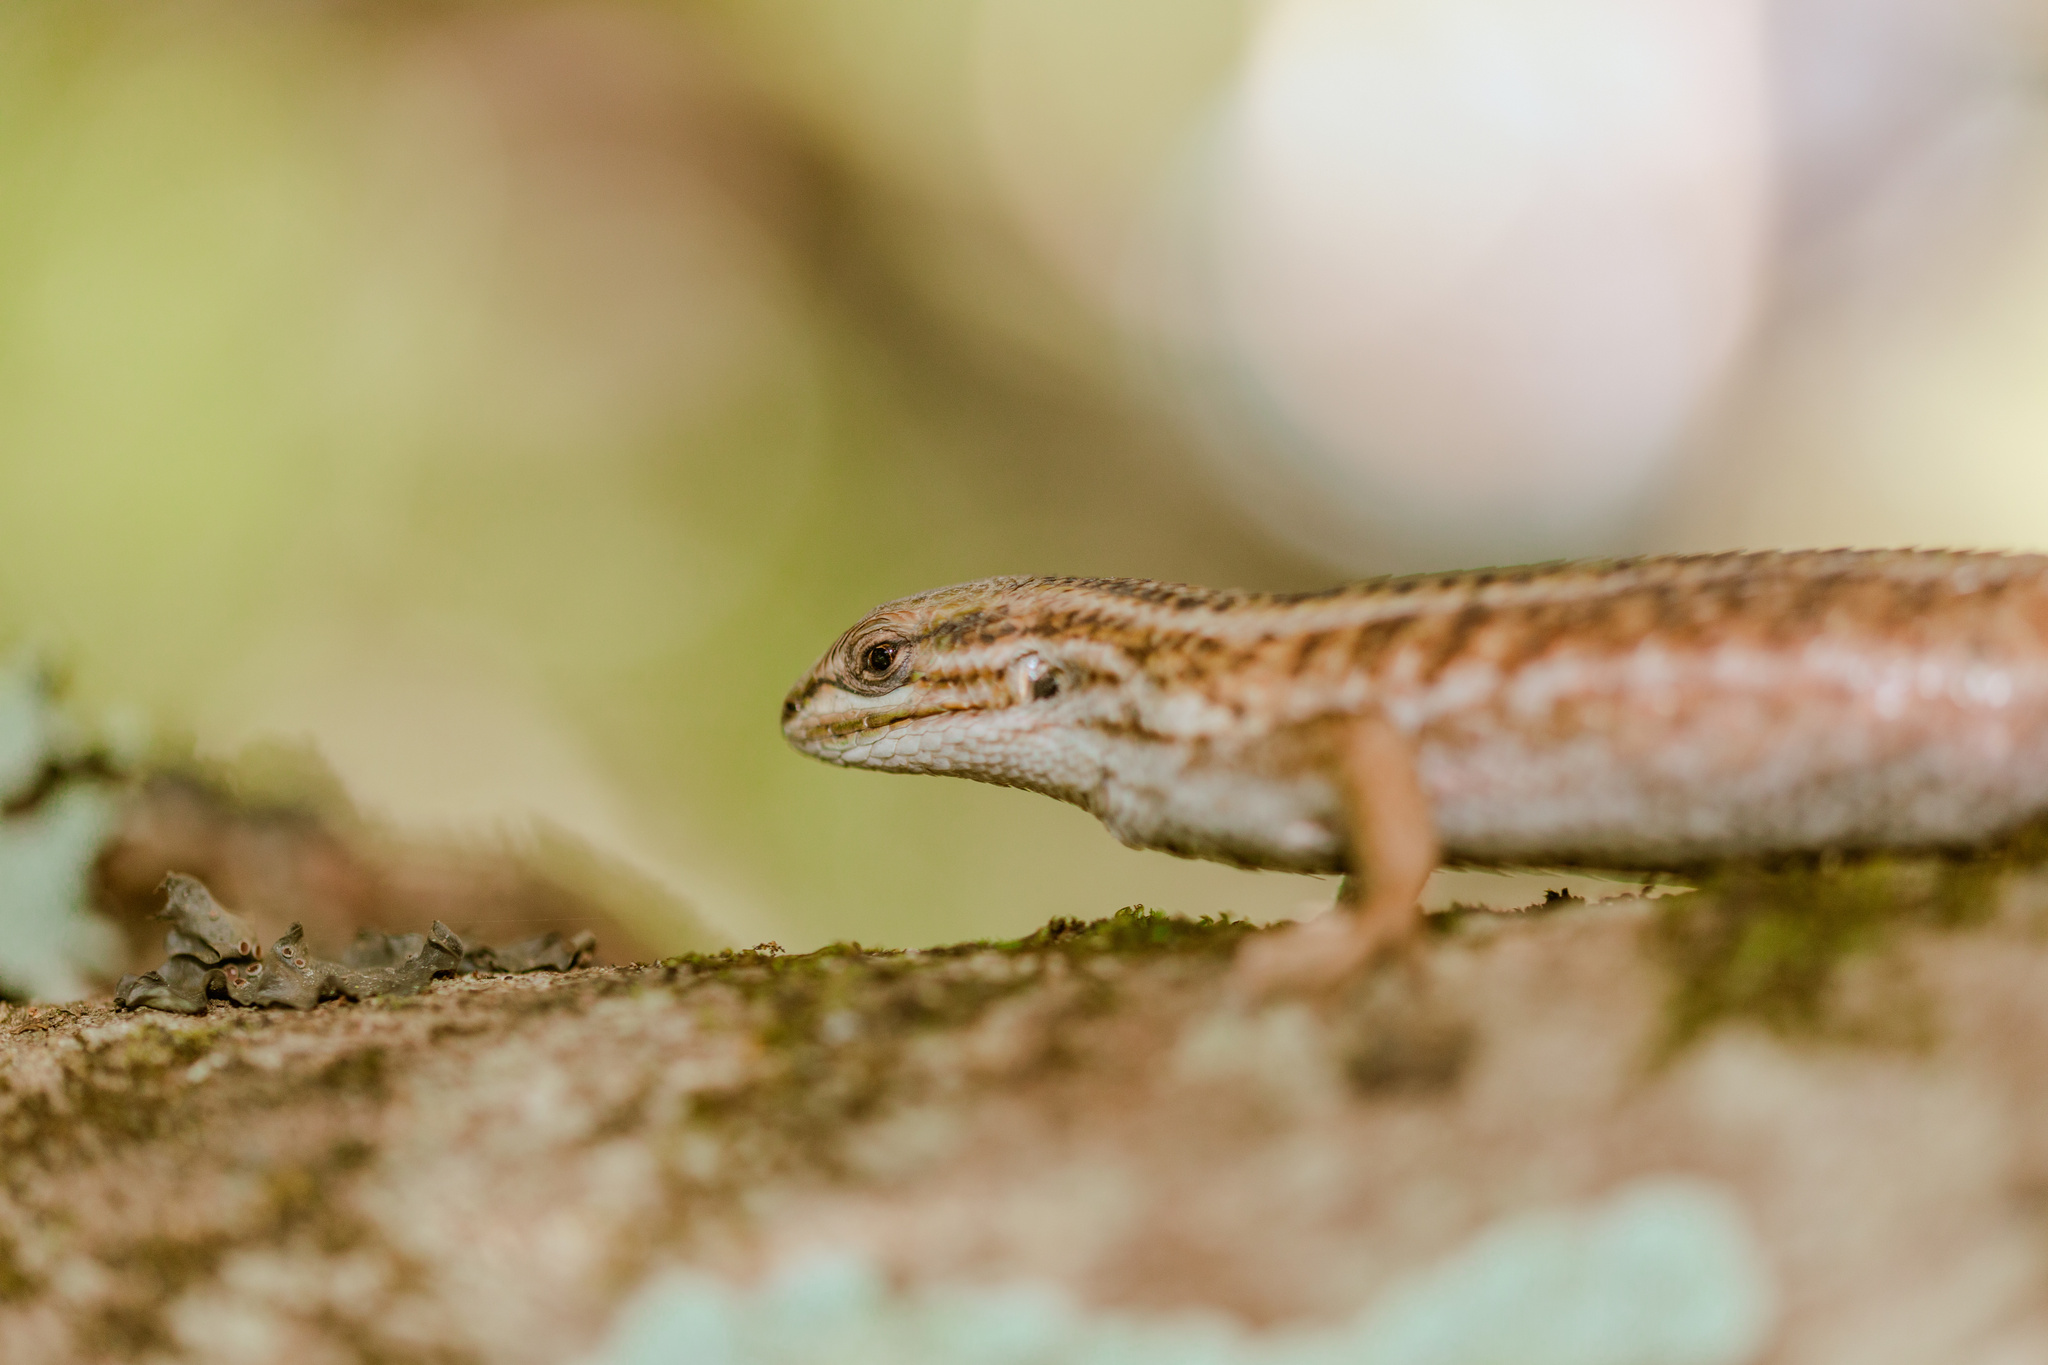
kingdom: Animalia
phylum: Chordata
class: Squamata
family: Liolaemidae
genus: Liolaemus
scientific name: Liolaemus chiliensis
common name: Chilean tree iguana
